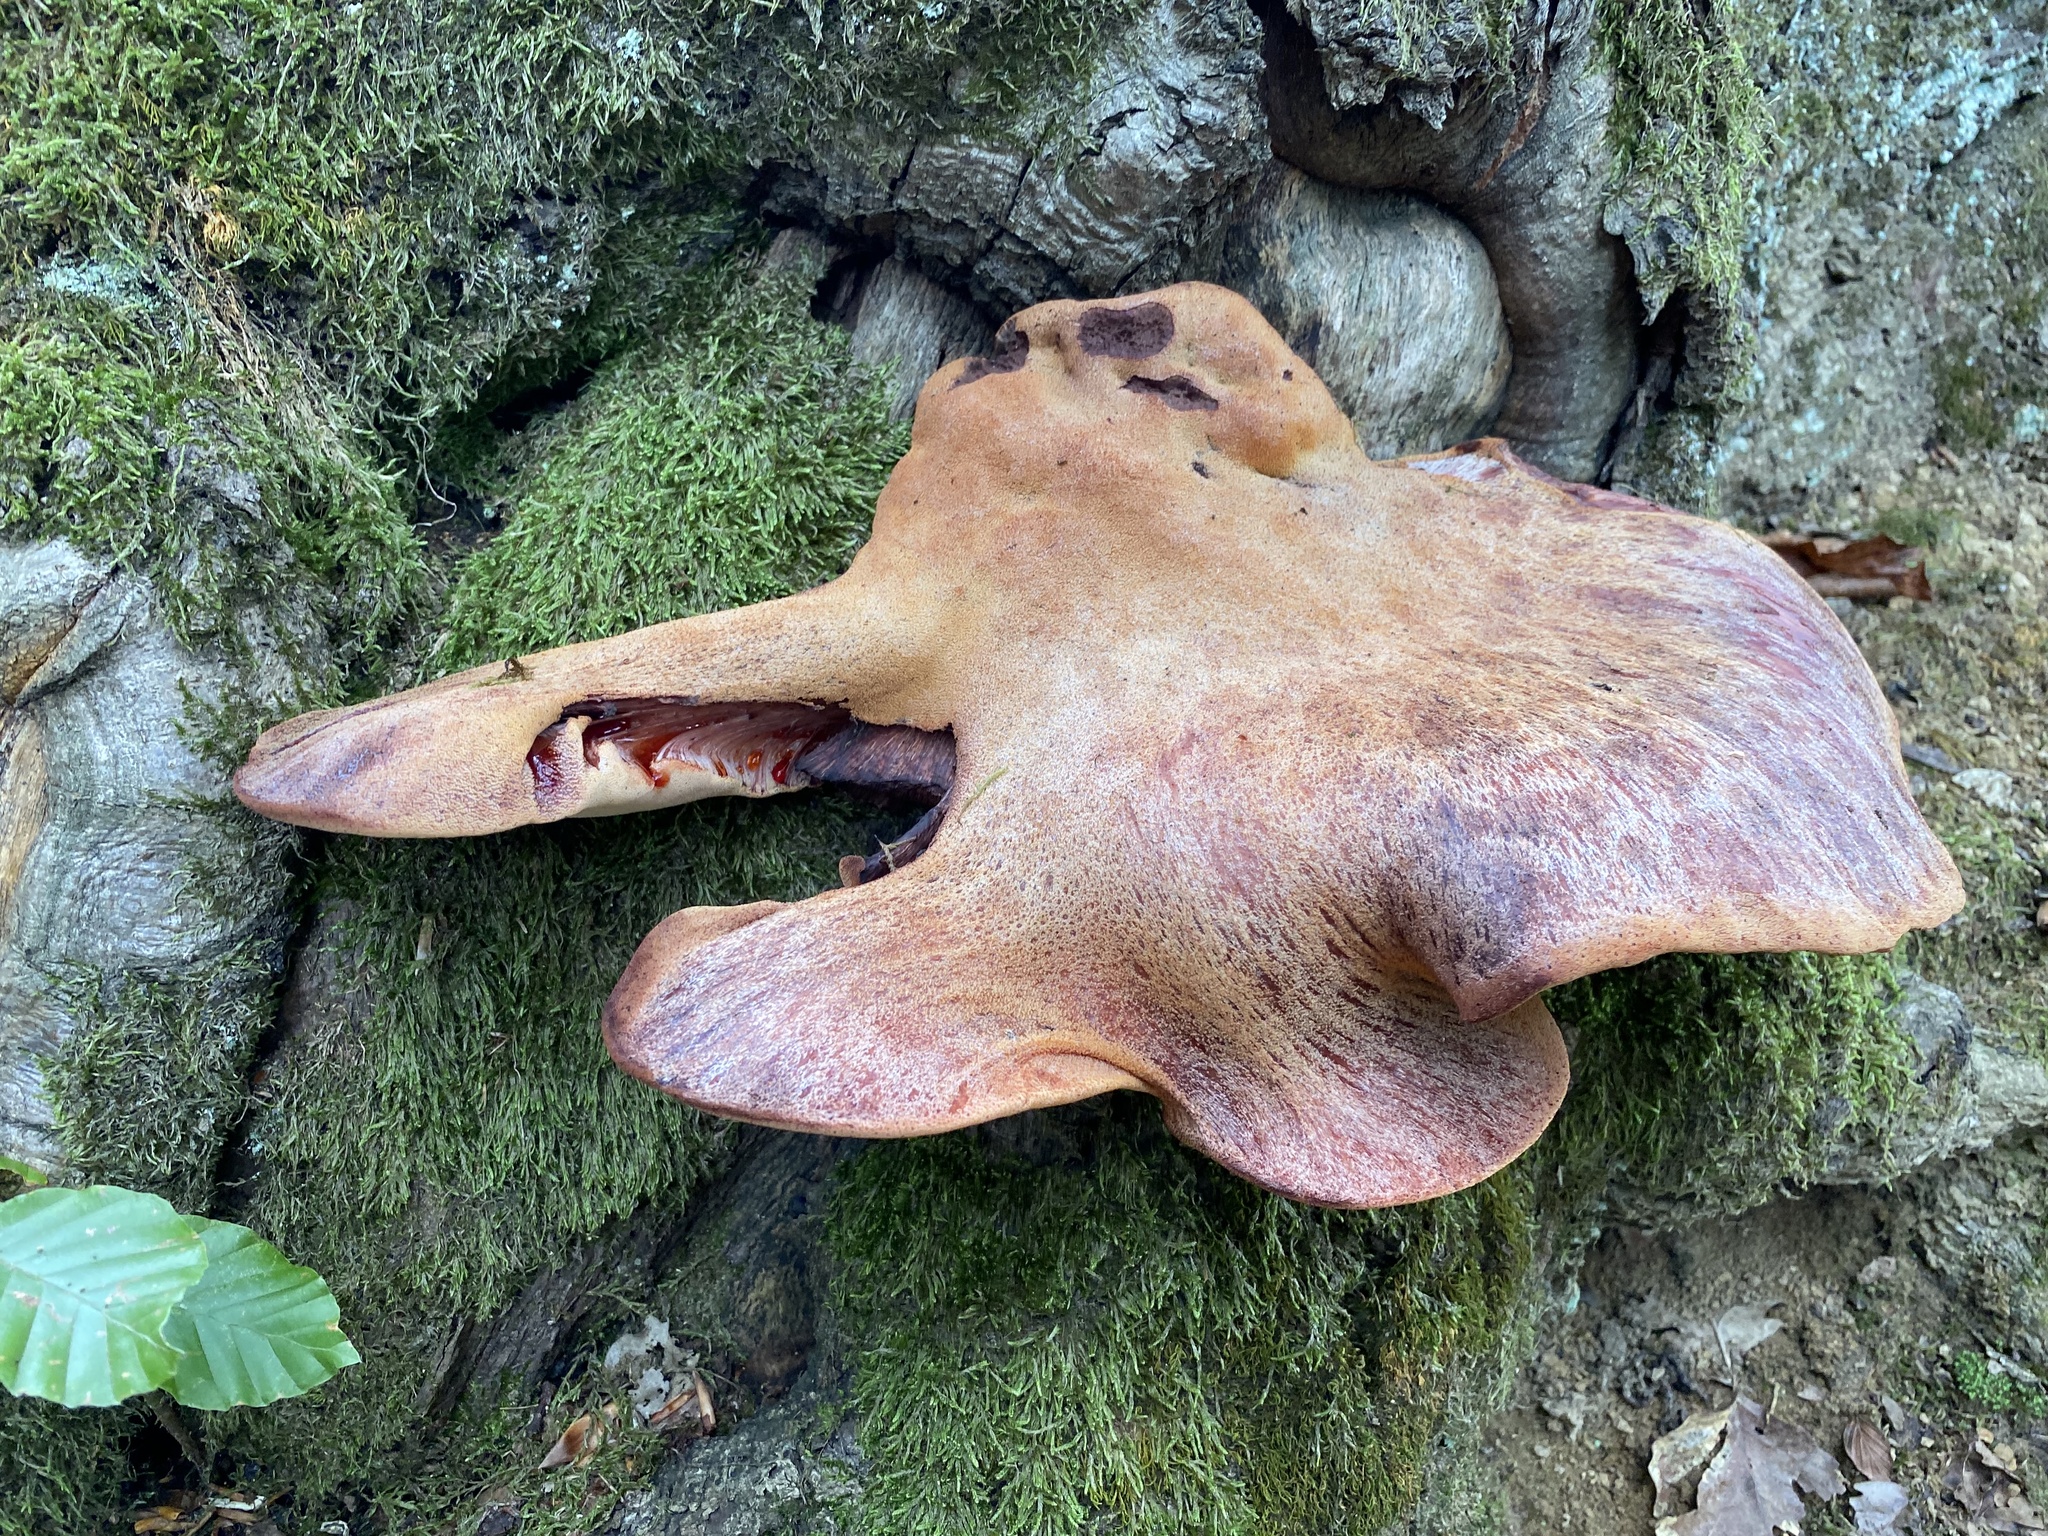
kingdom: Fungi
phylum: Basidiomycota
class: Agaricomycetes
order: Agaricales
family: Fistulinaceae
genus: Fistulina
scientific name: Fistulina hepatica
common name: Beef-steak fungus
